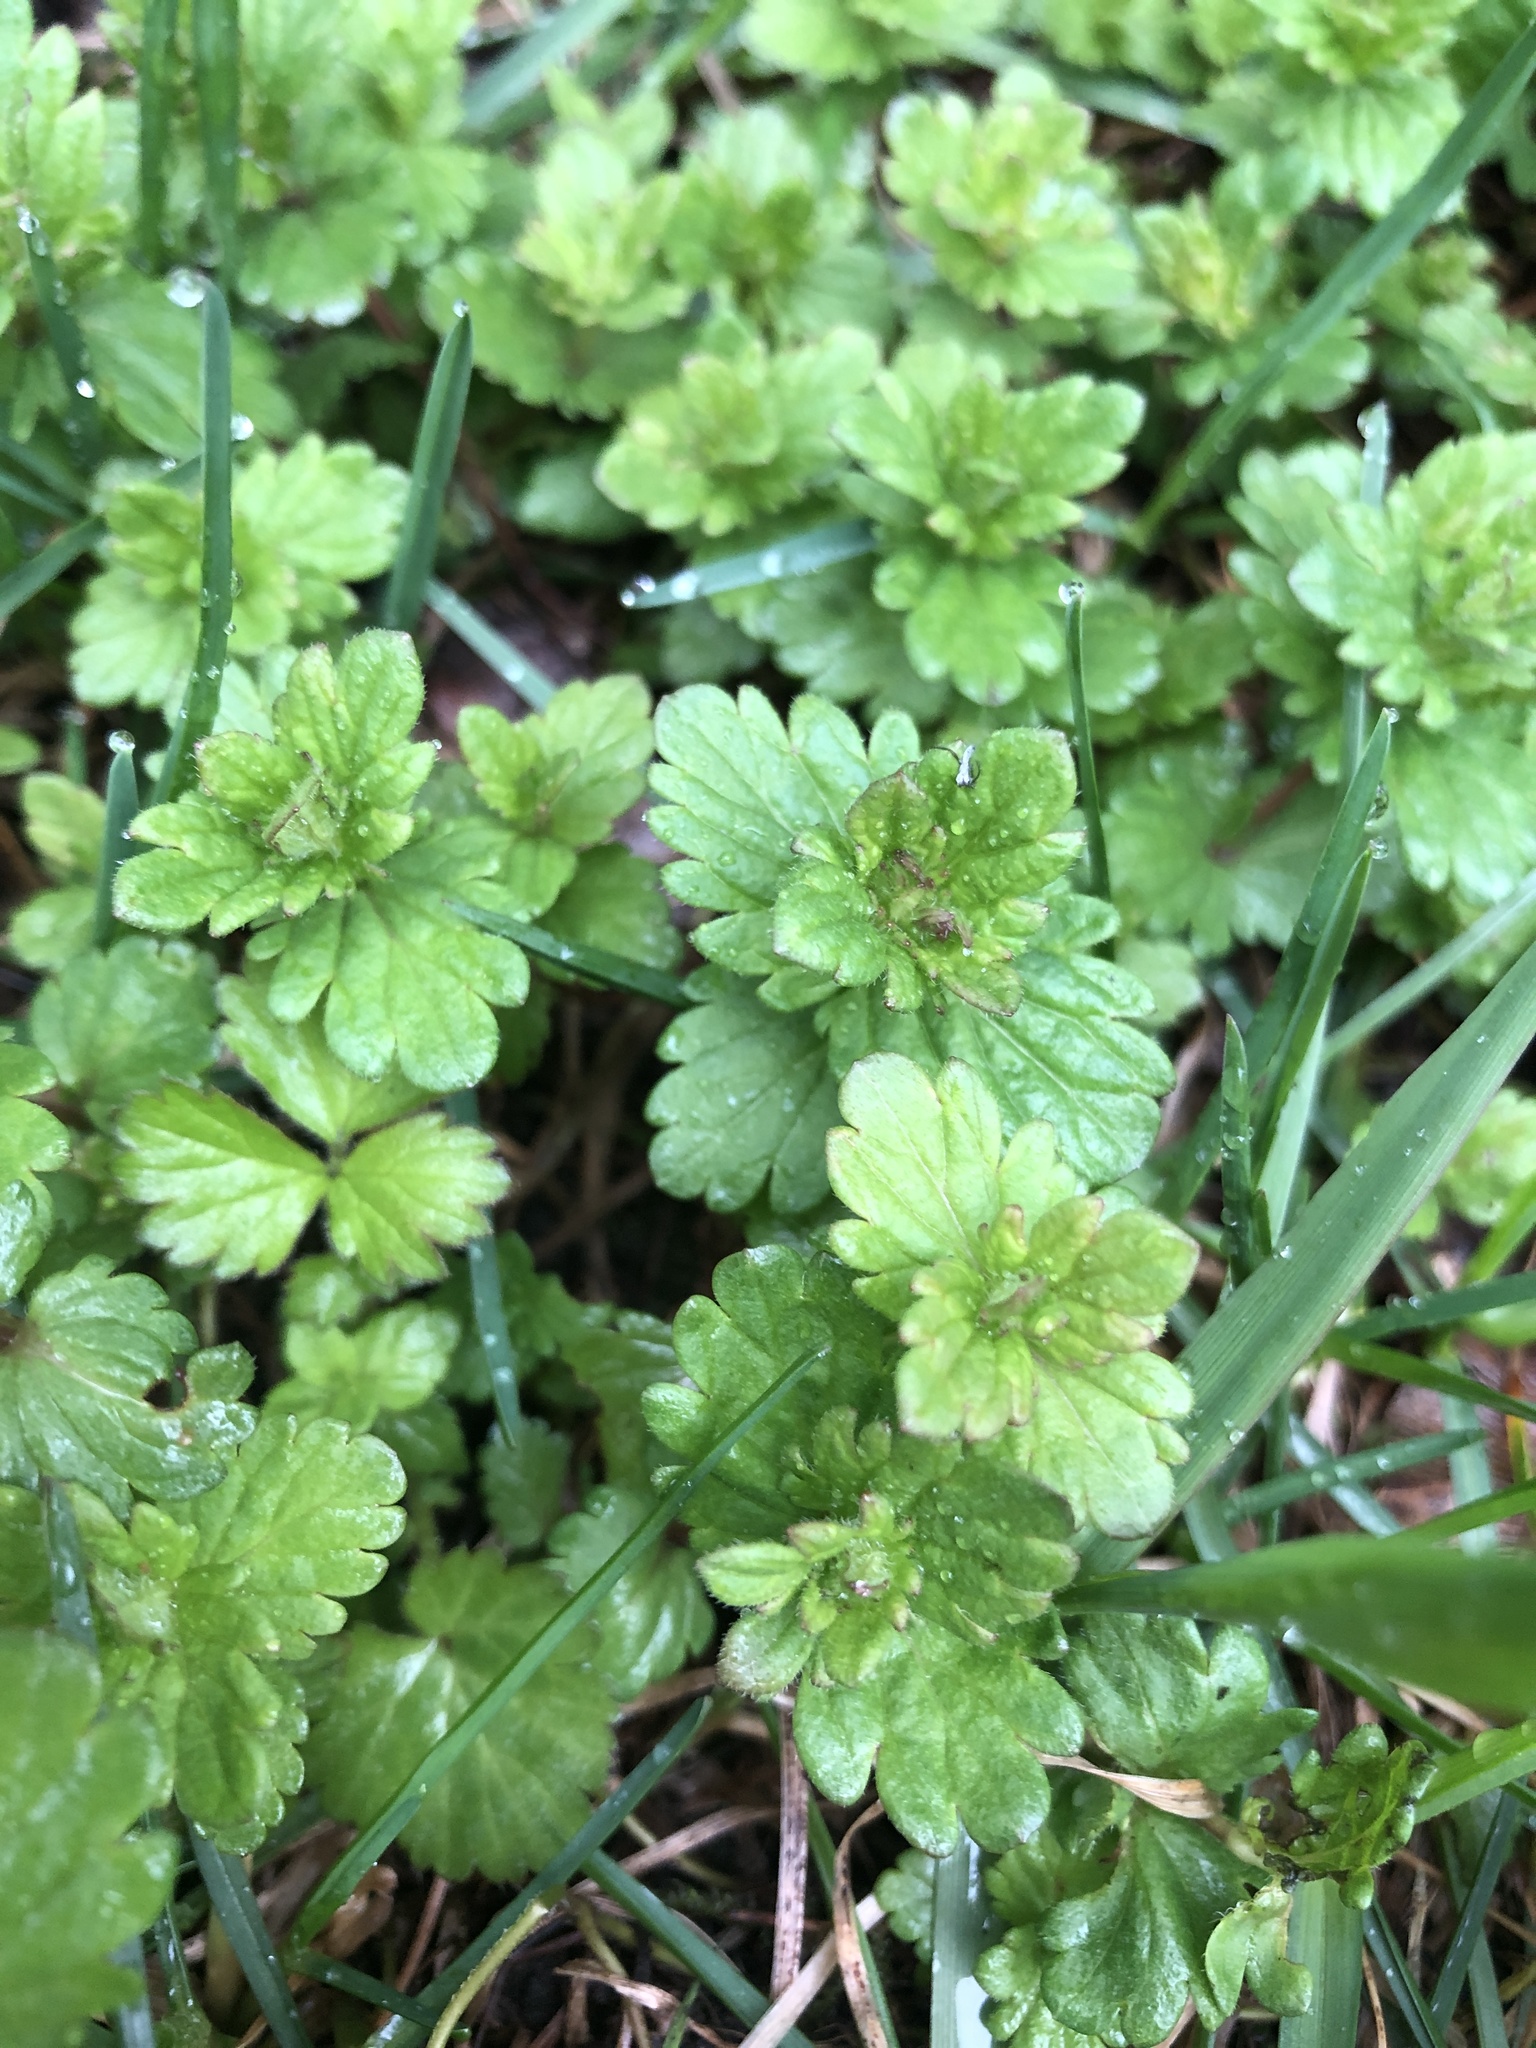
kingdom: Plantae
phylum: Tracheophyta
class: Magnoliopsida
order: Lamiales
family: Plantaginaceae
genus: Veronica
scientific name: Veronica chamaedrys
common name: Germander speedwell
